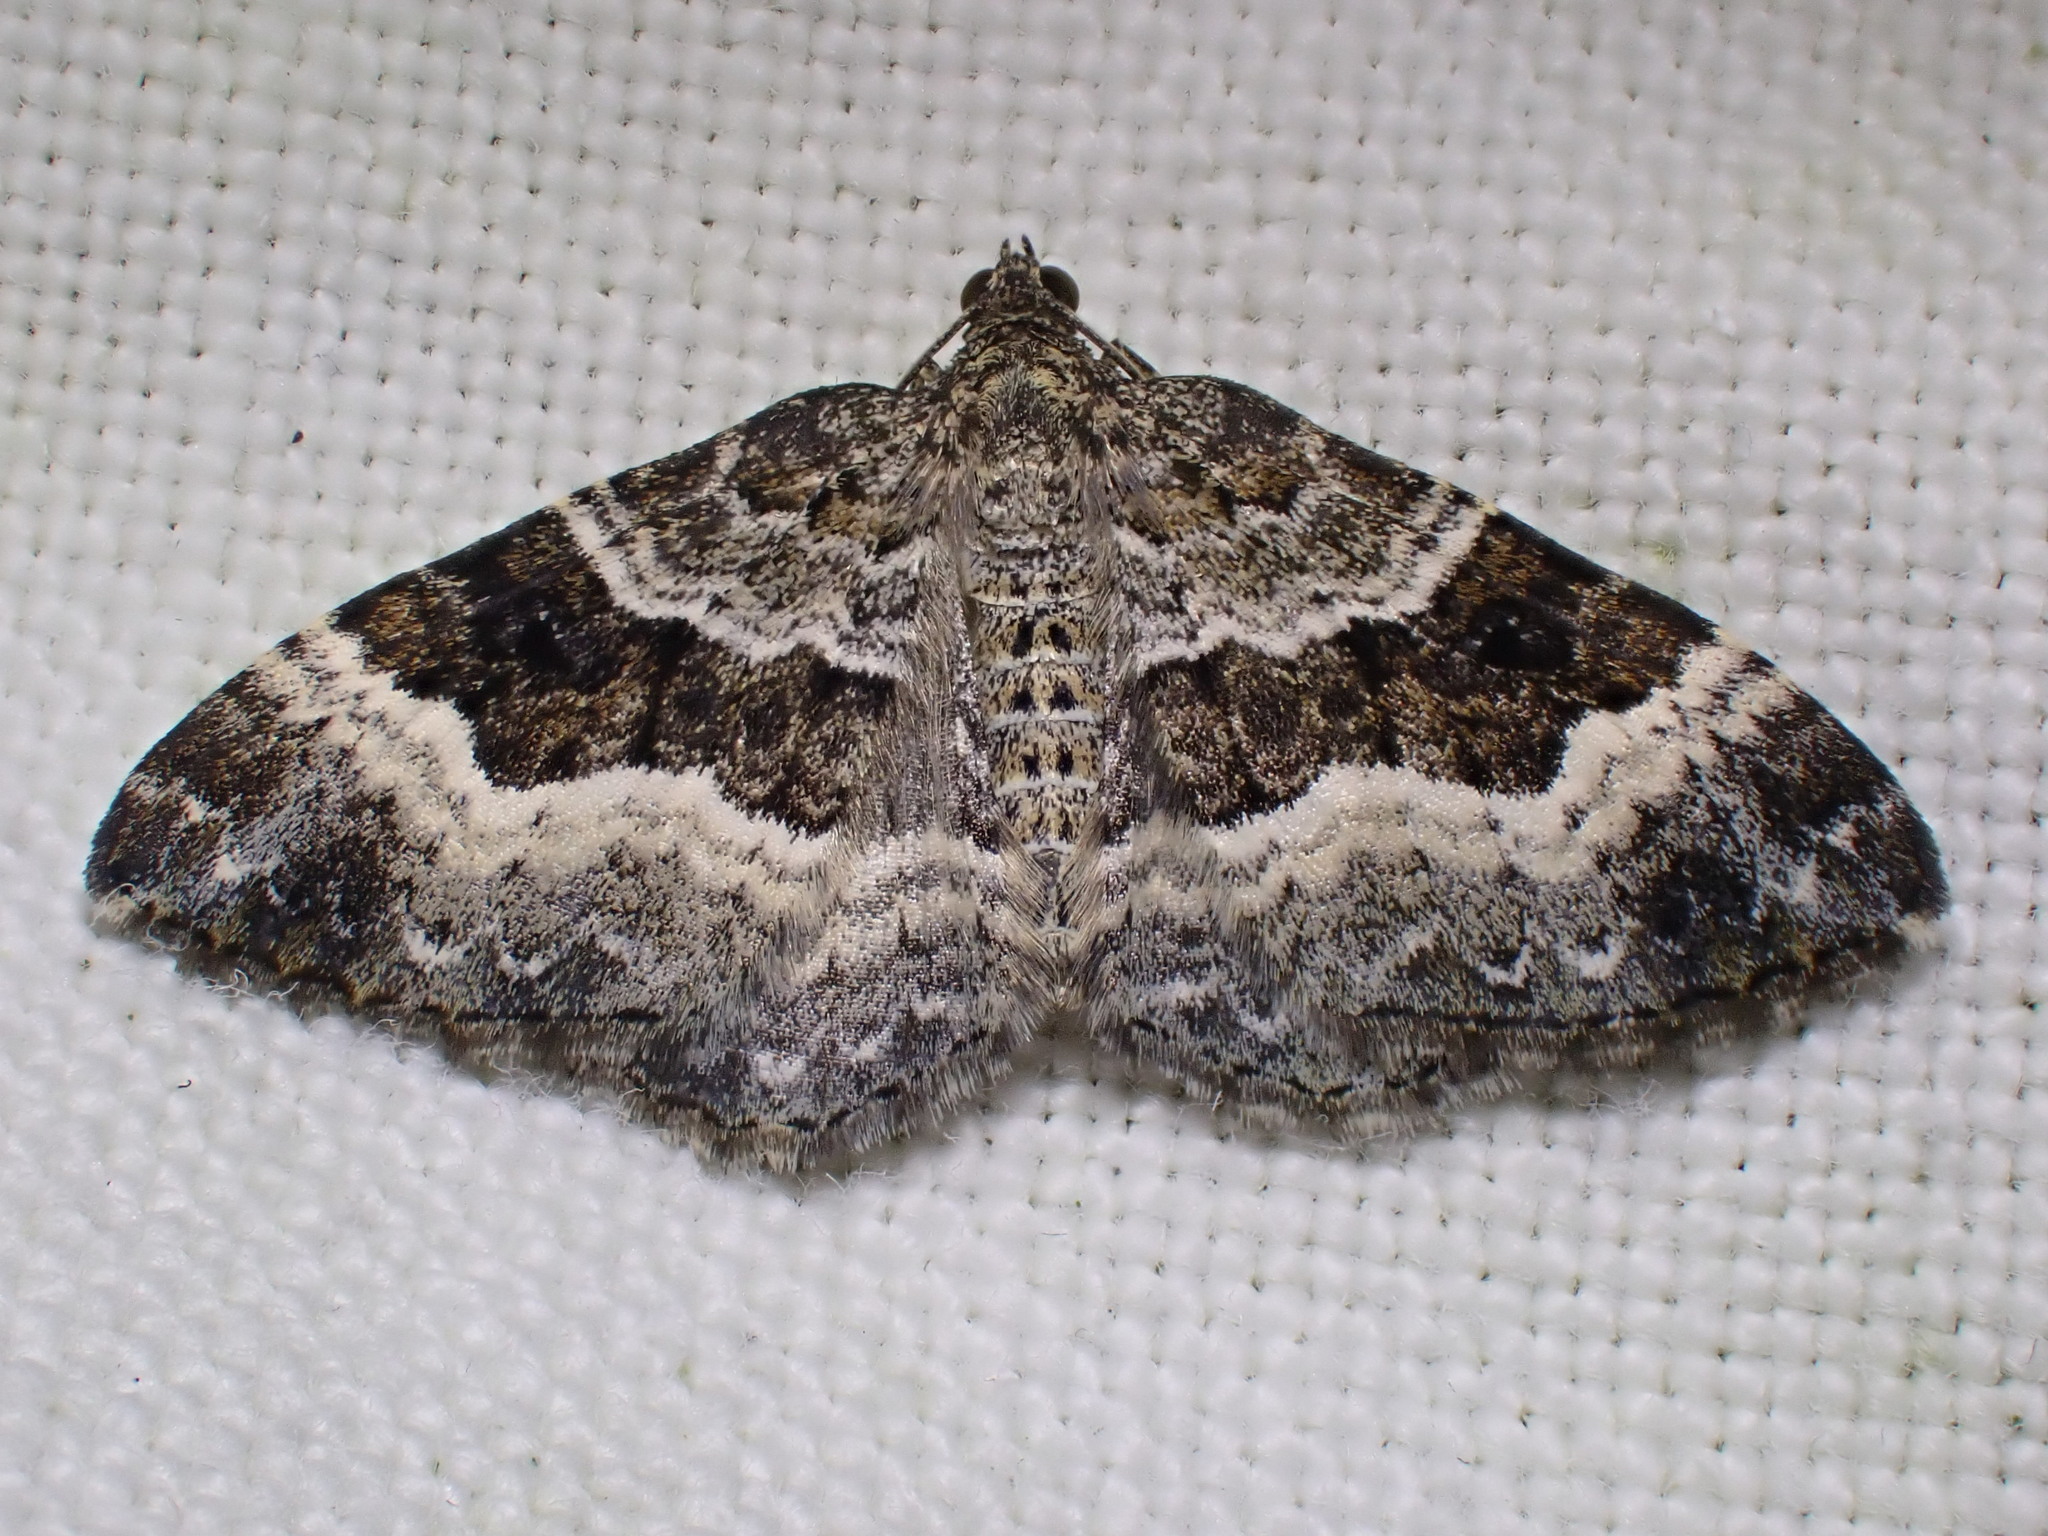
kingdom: Animalia
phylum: Arthropoda
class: Insecta
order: Lepidoptera
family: Geometridae
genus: Epirrhoe
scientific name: Epirrhoe alternata
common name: Common carpet
